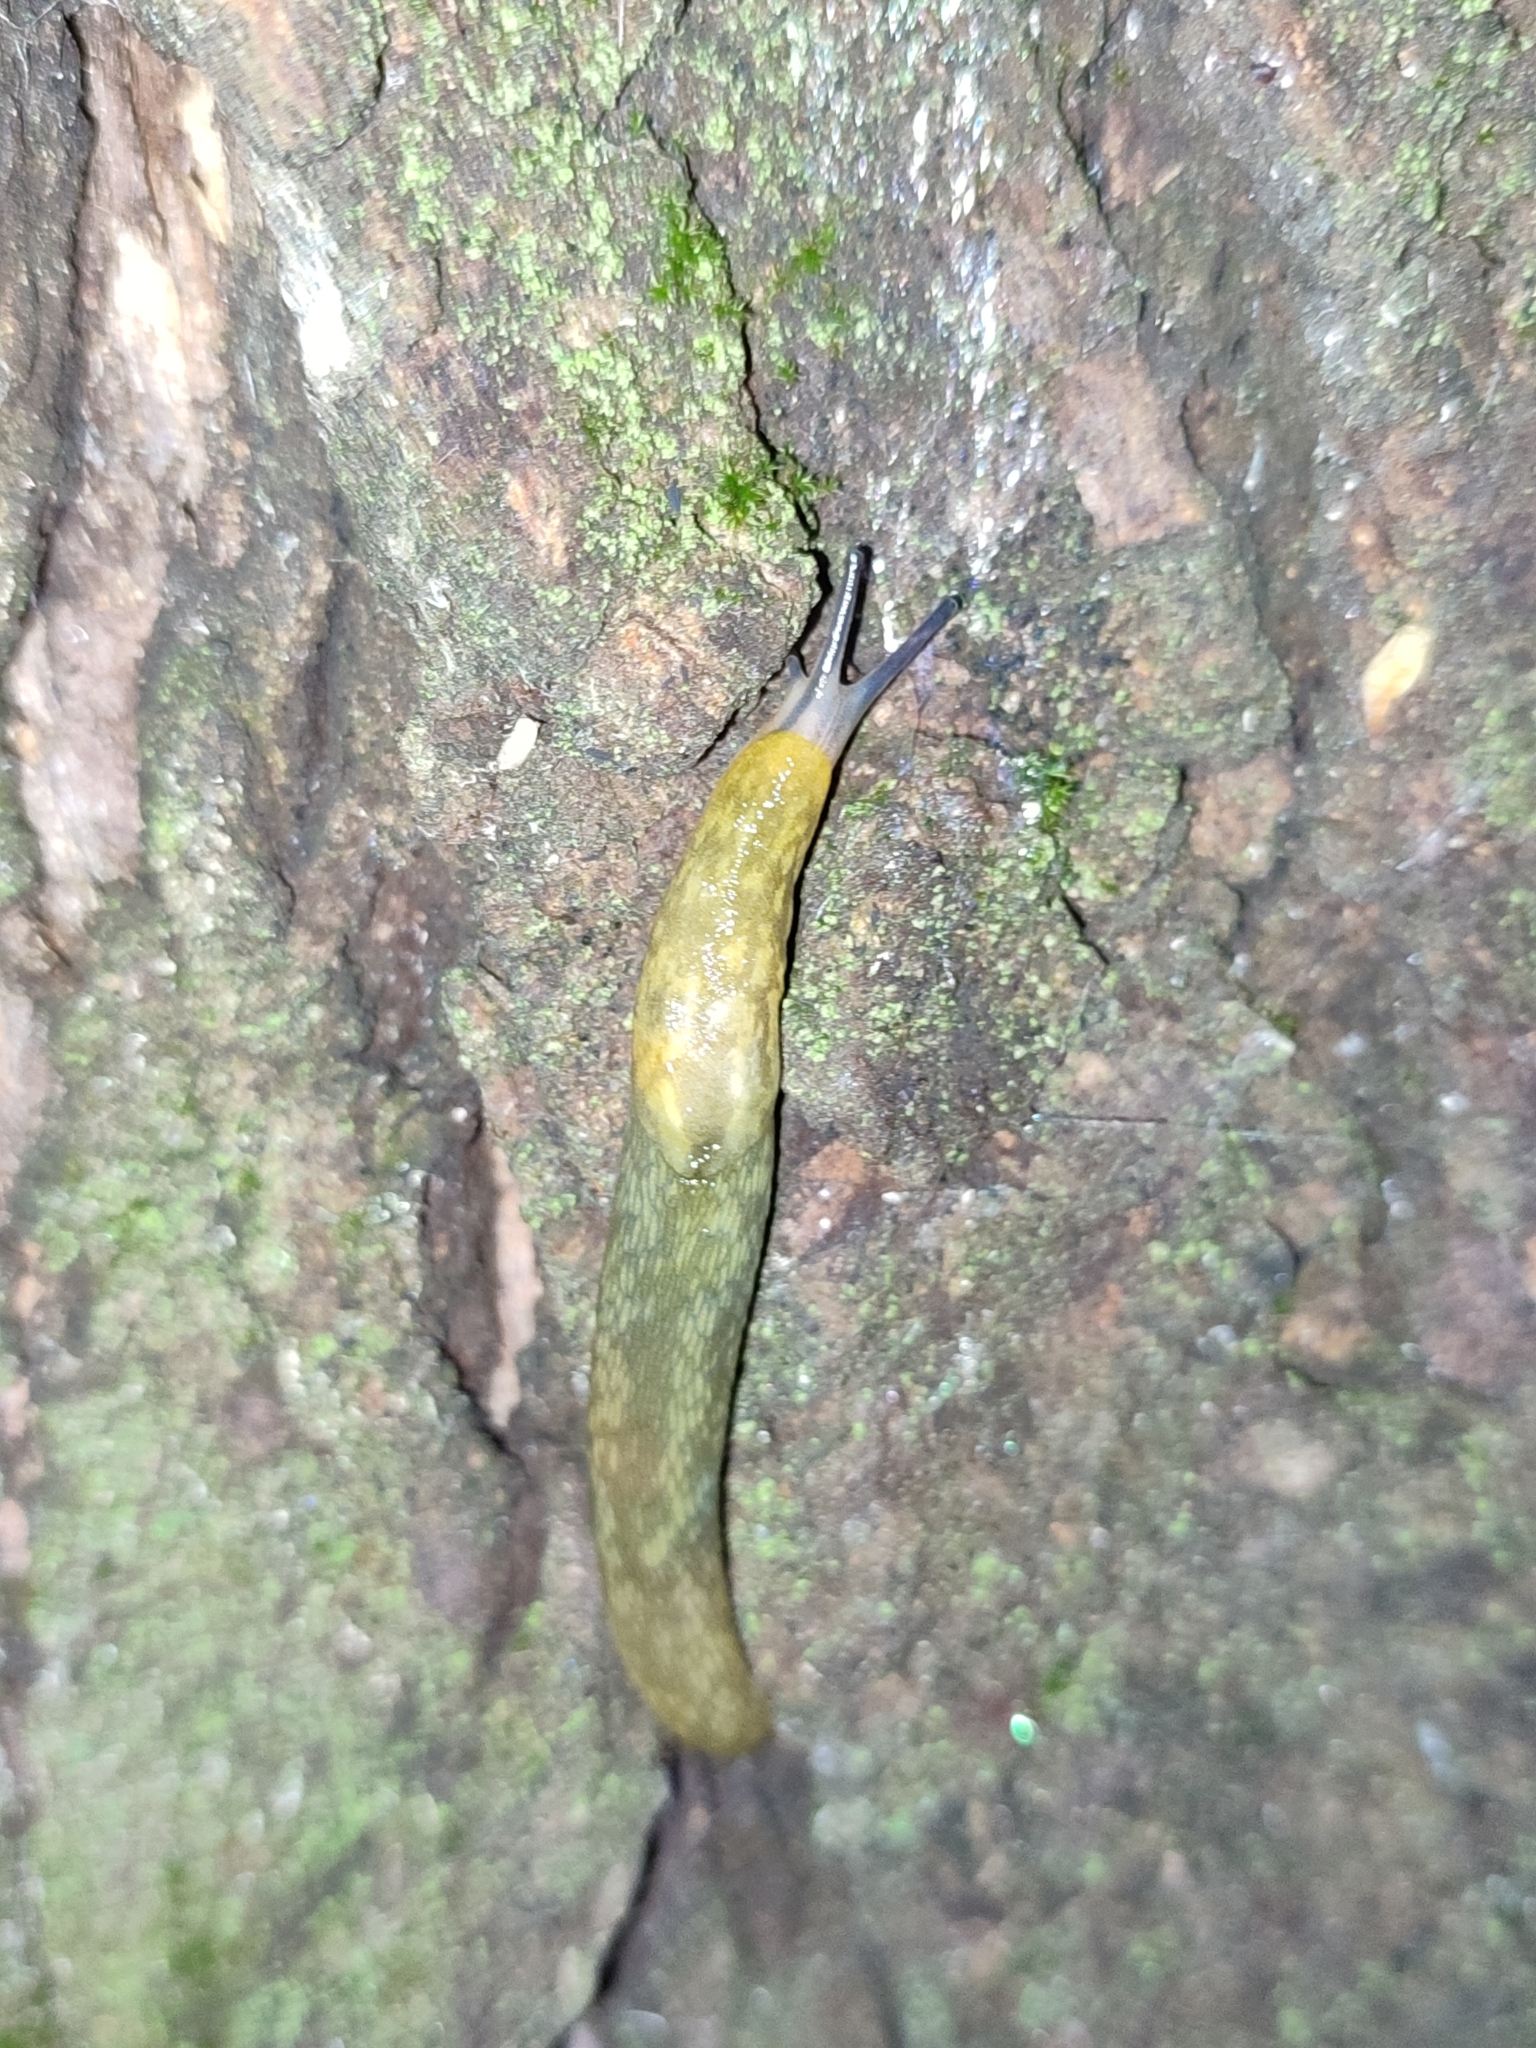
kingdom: Animalia
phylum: Mollusca
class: Gastropoda
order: Stylommatophora
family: Limacidae
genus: Limacus
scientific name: Limacus flavus
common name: Yellow gardenslug
